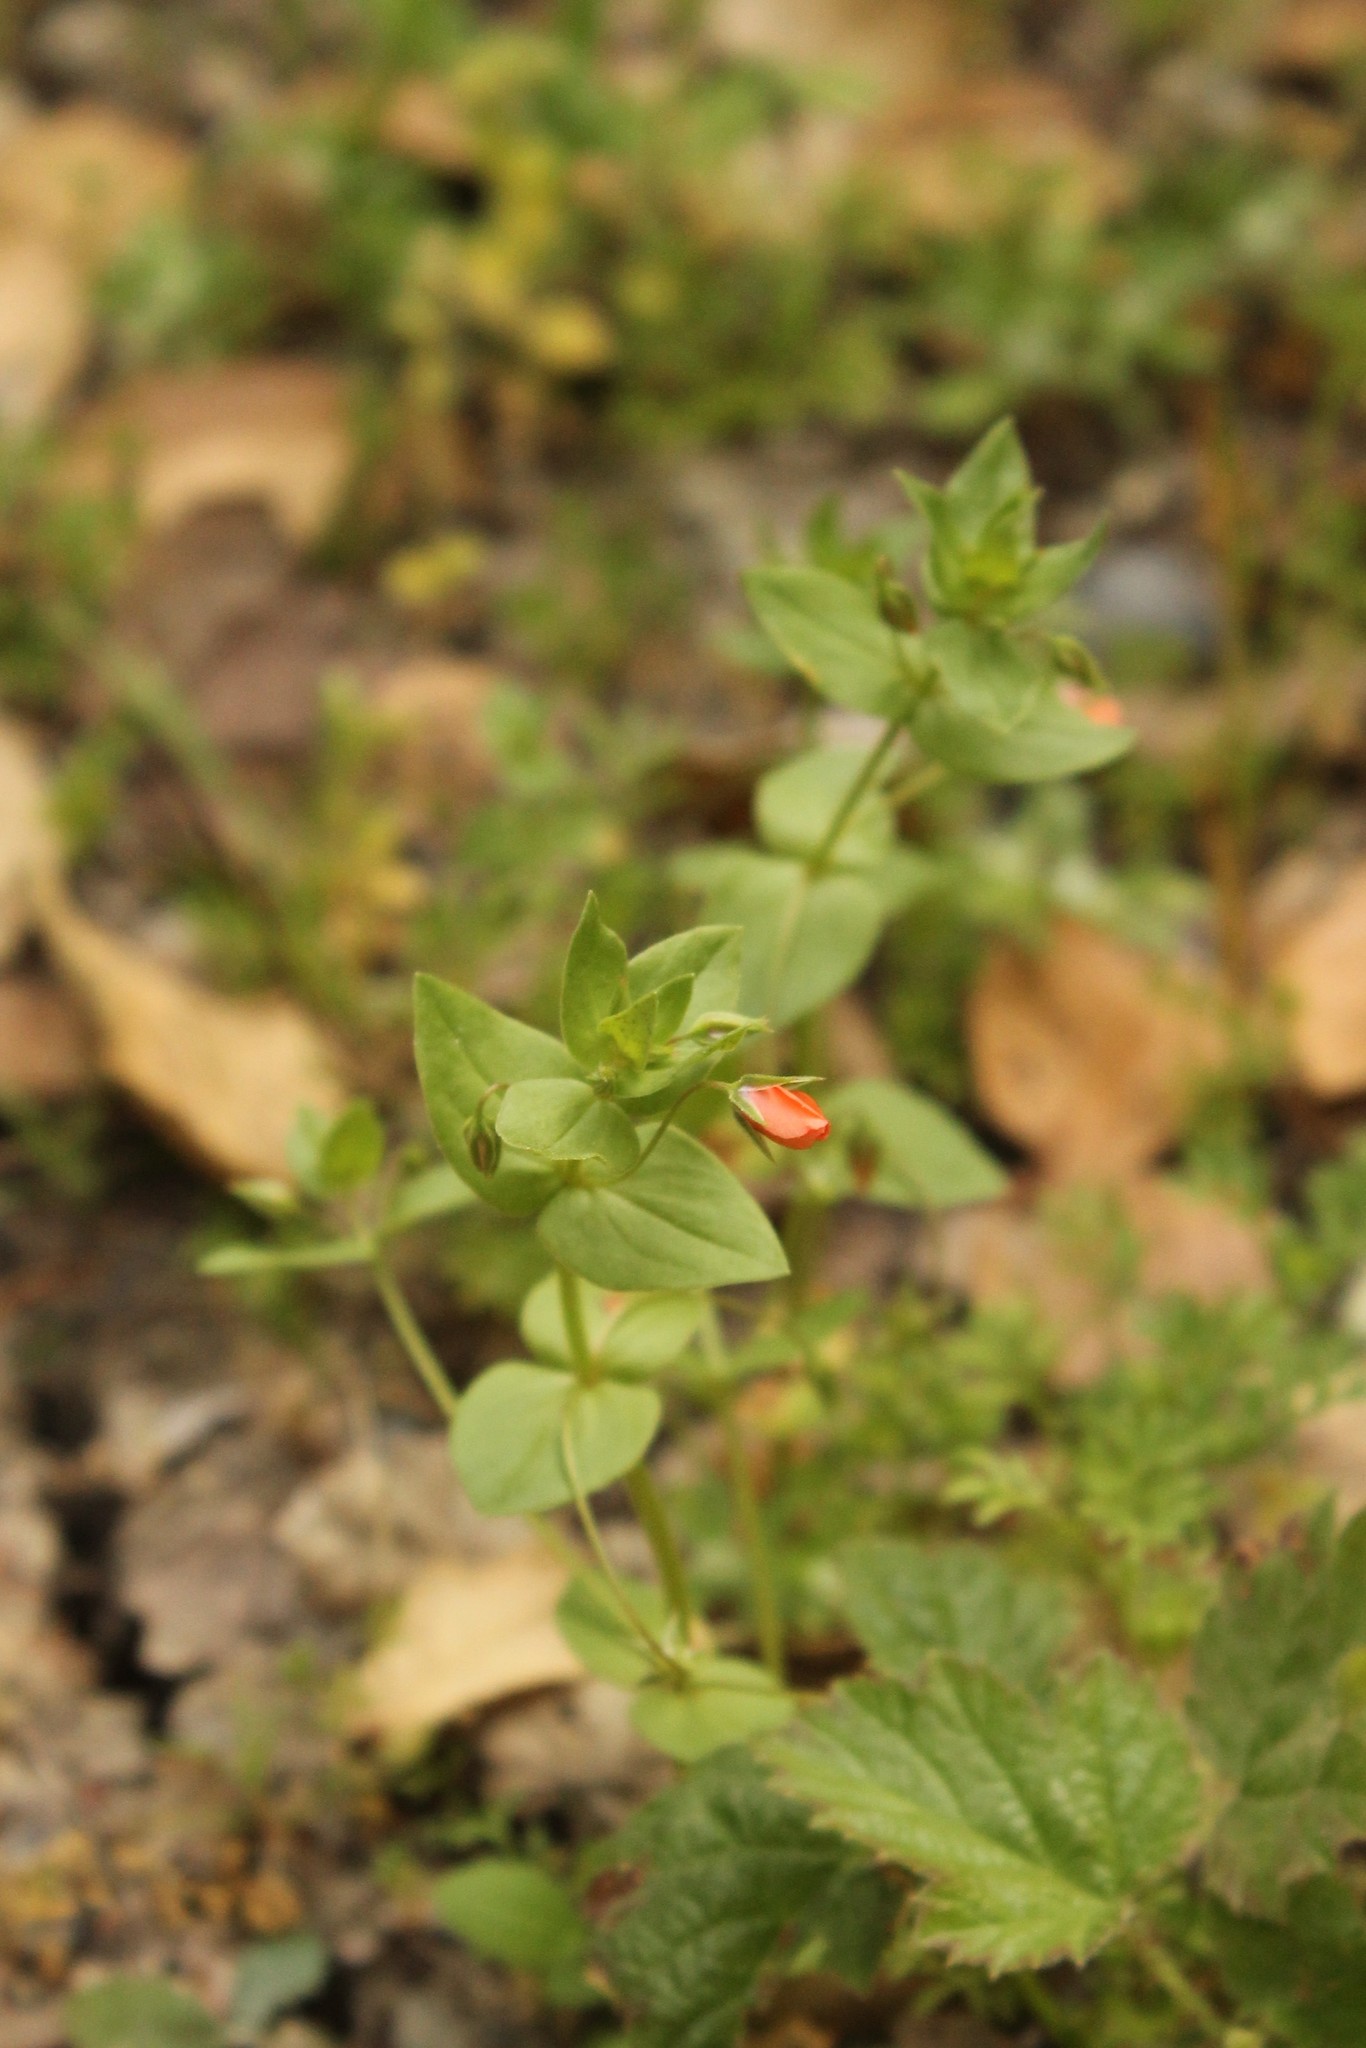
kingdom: Plantae
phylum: Tracheophyta
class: Magnoliopsida
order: Ericales
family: Primulaceae
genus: Lysimachia
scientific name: Lysimachia arvensis
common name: Scarlet pimpernel
